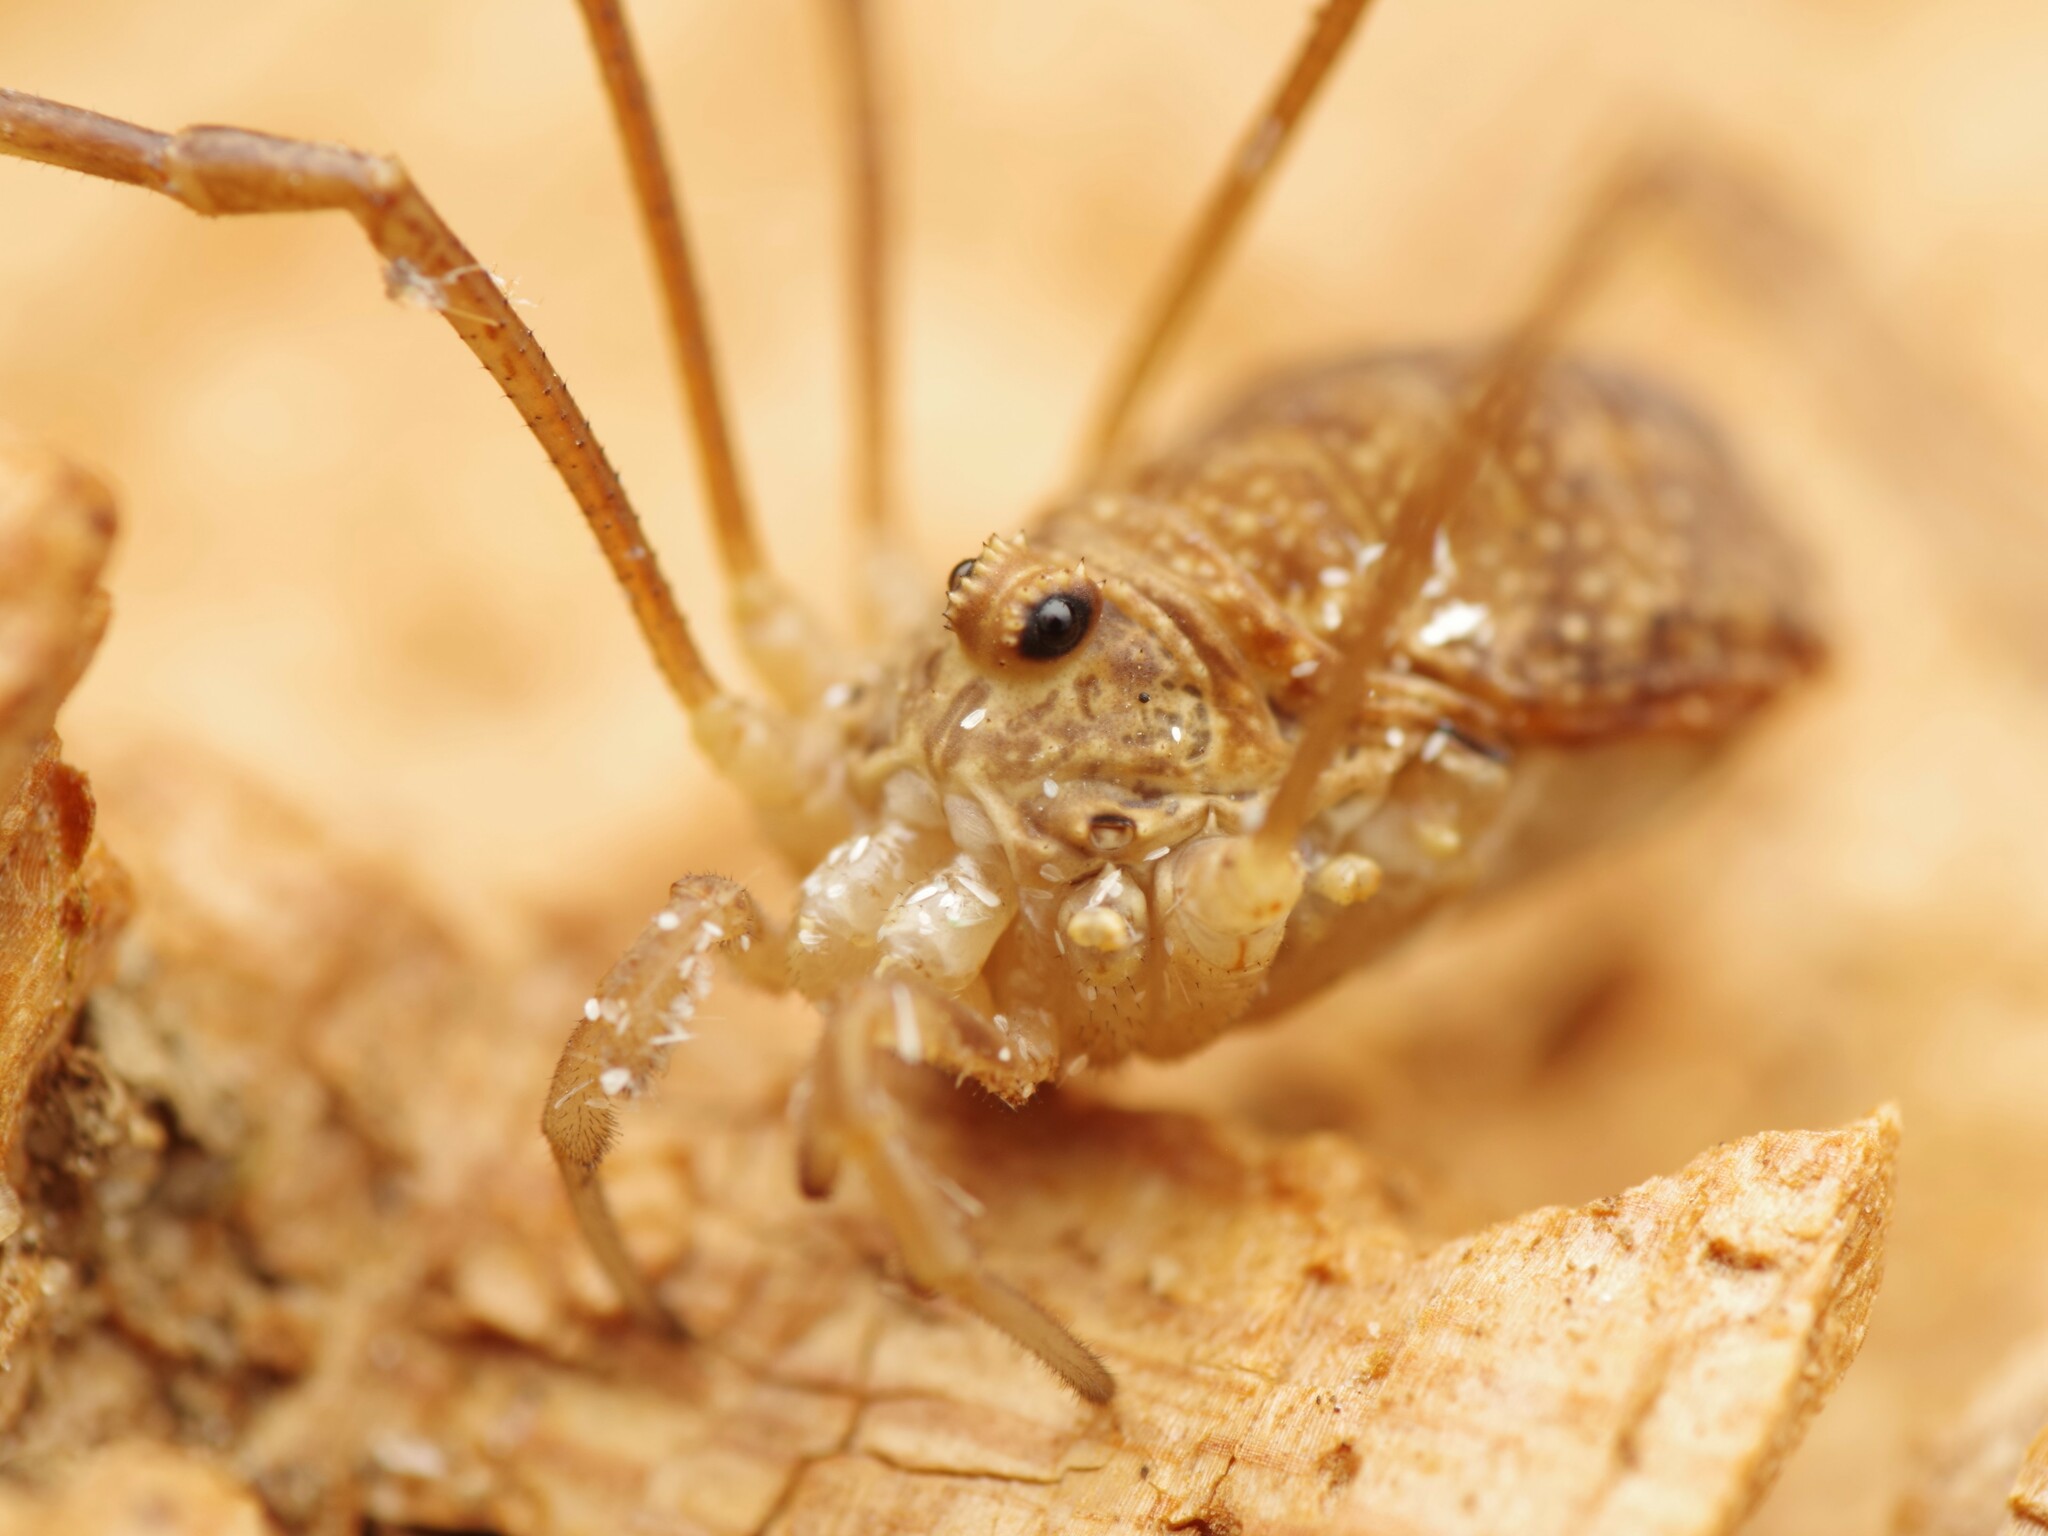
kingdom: Animalia
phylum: Arthropoda
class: Arachnida
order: Opiliones
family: Phalangiidae
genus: Rilaena
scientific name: Rilaena triangularis
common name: Spring harvestman
